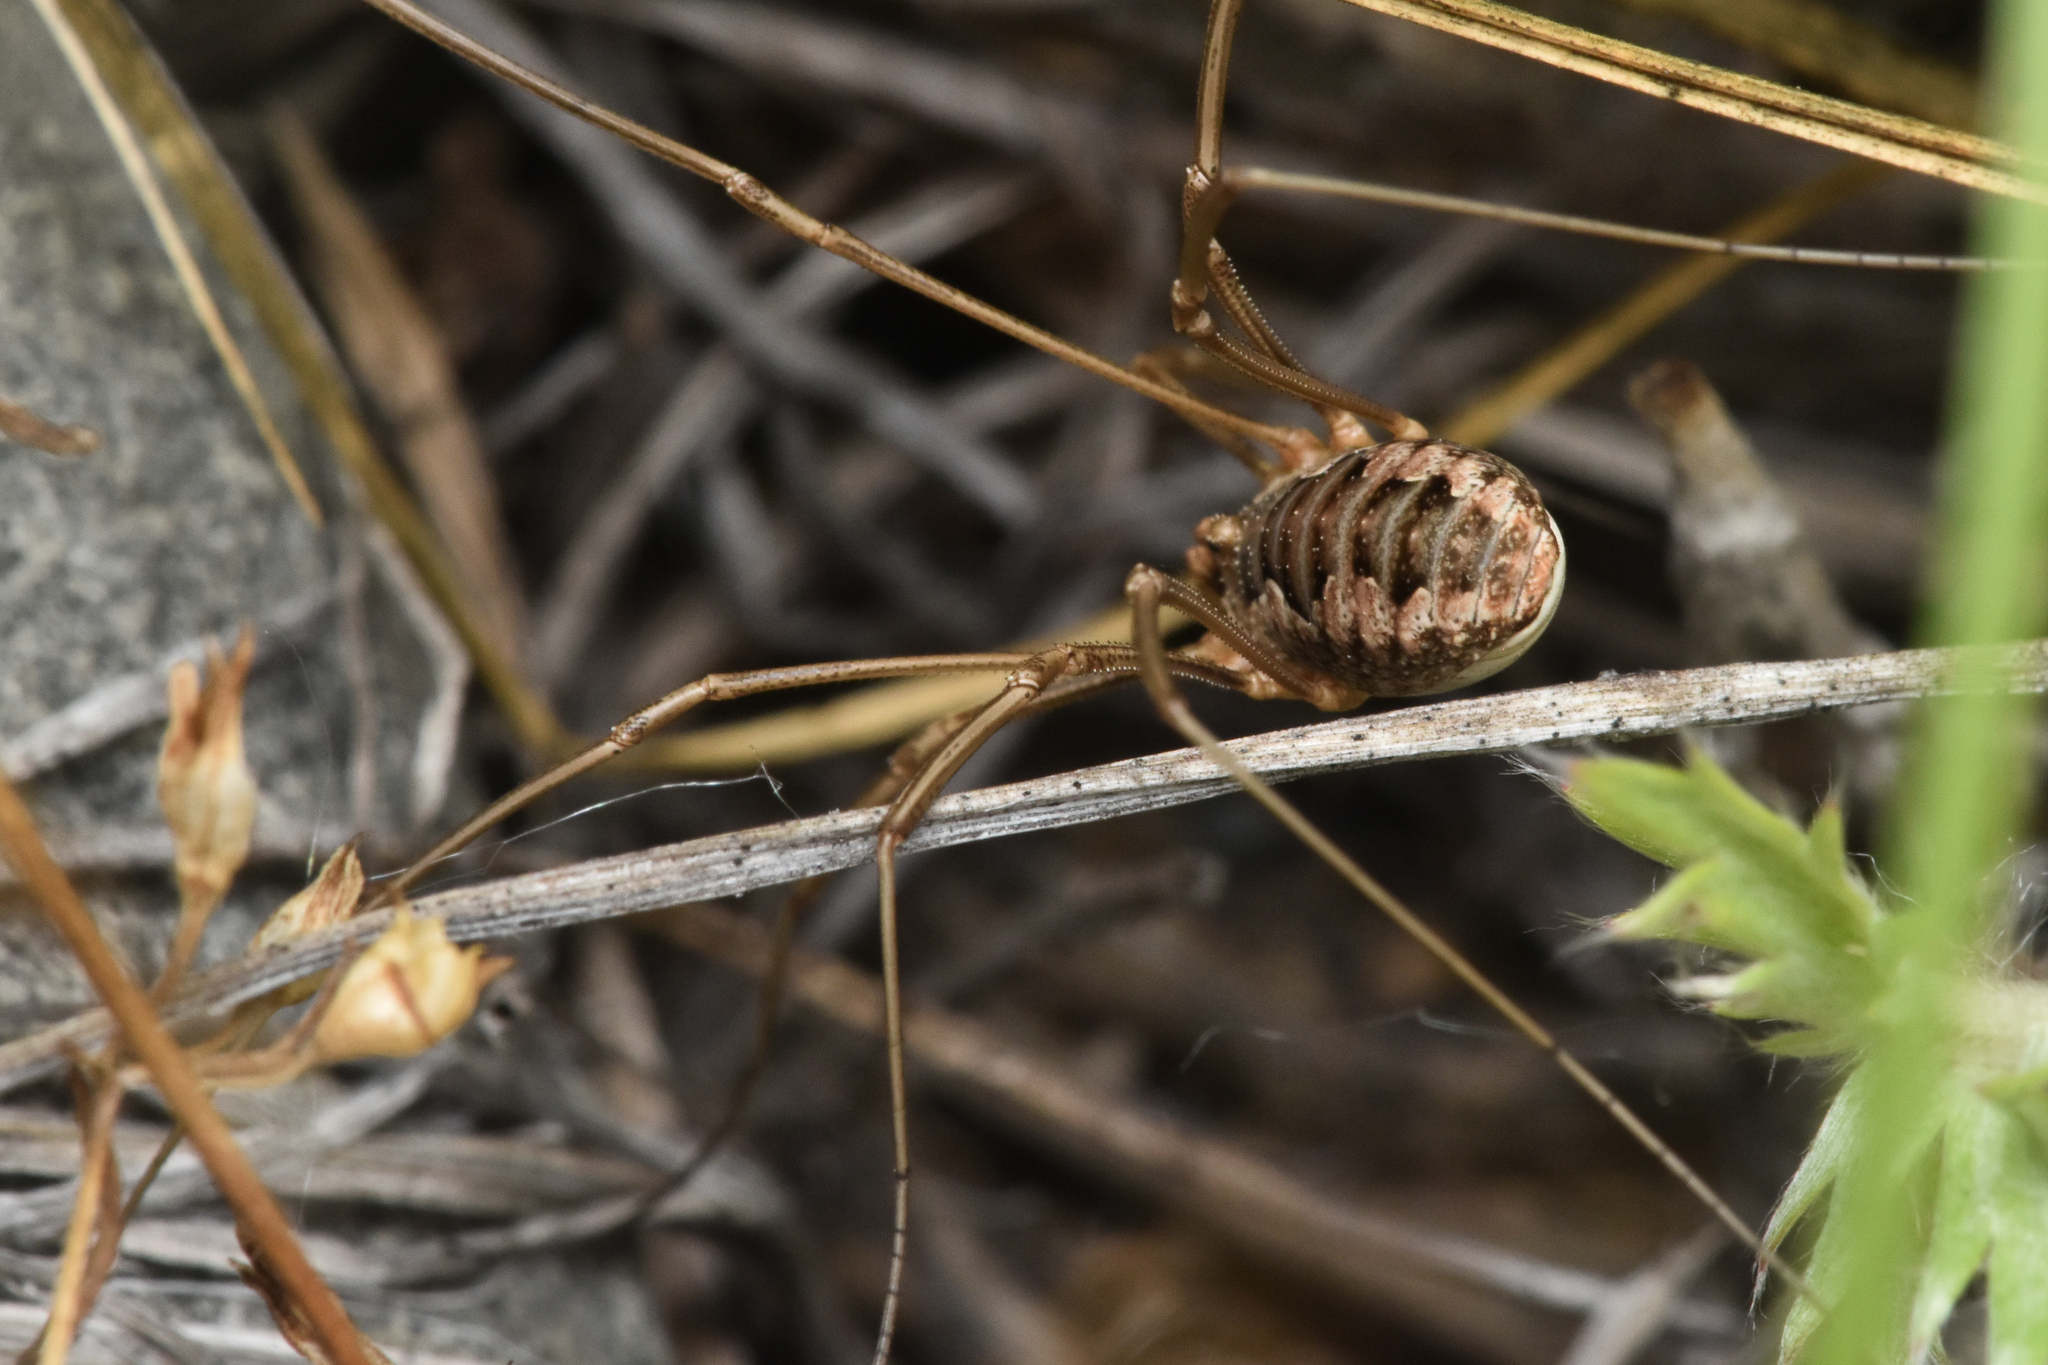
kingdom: Animalia
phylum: Arthropoda
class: Arachnida
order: Opiliones
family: Phalangiidae
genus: Phalangium
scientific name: Phalangium opilio
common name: Daddy longleg
